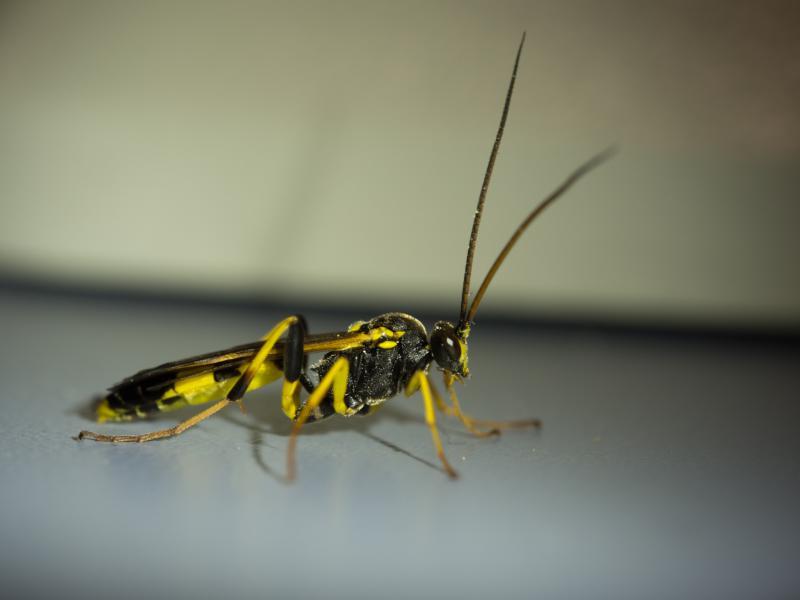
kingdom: Animalia
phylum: Arthropoda
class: Insecta
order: Hymenoptera
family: Ichneumonidae
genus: Amblyteles
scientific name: Amblyteles armatorius
